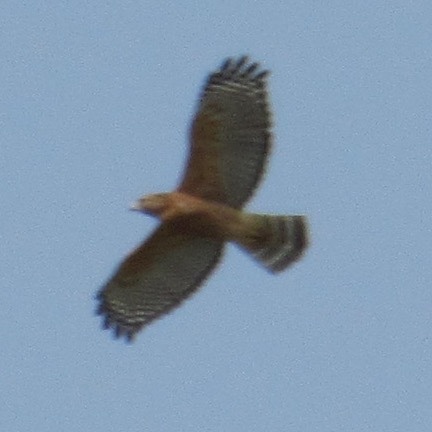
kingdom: Animalia
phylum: Chordata
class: Aves
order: Accipitriformes
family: Accipitridae
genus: Buteo
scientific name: Buteo lineatus
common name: Red-shouldered hawk
